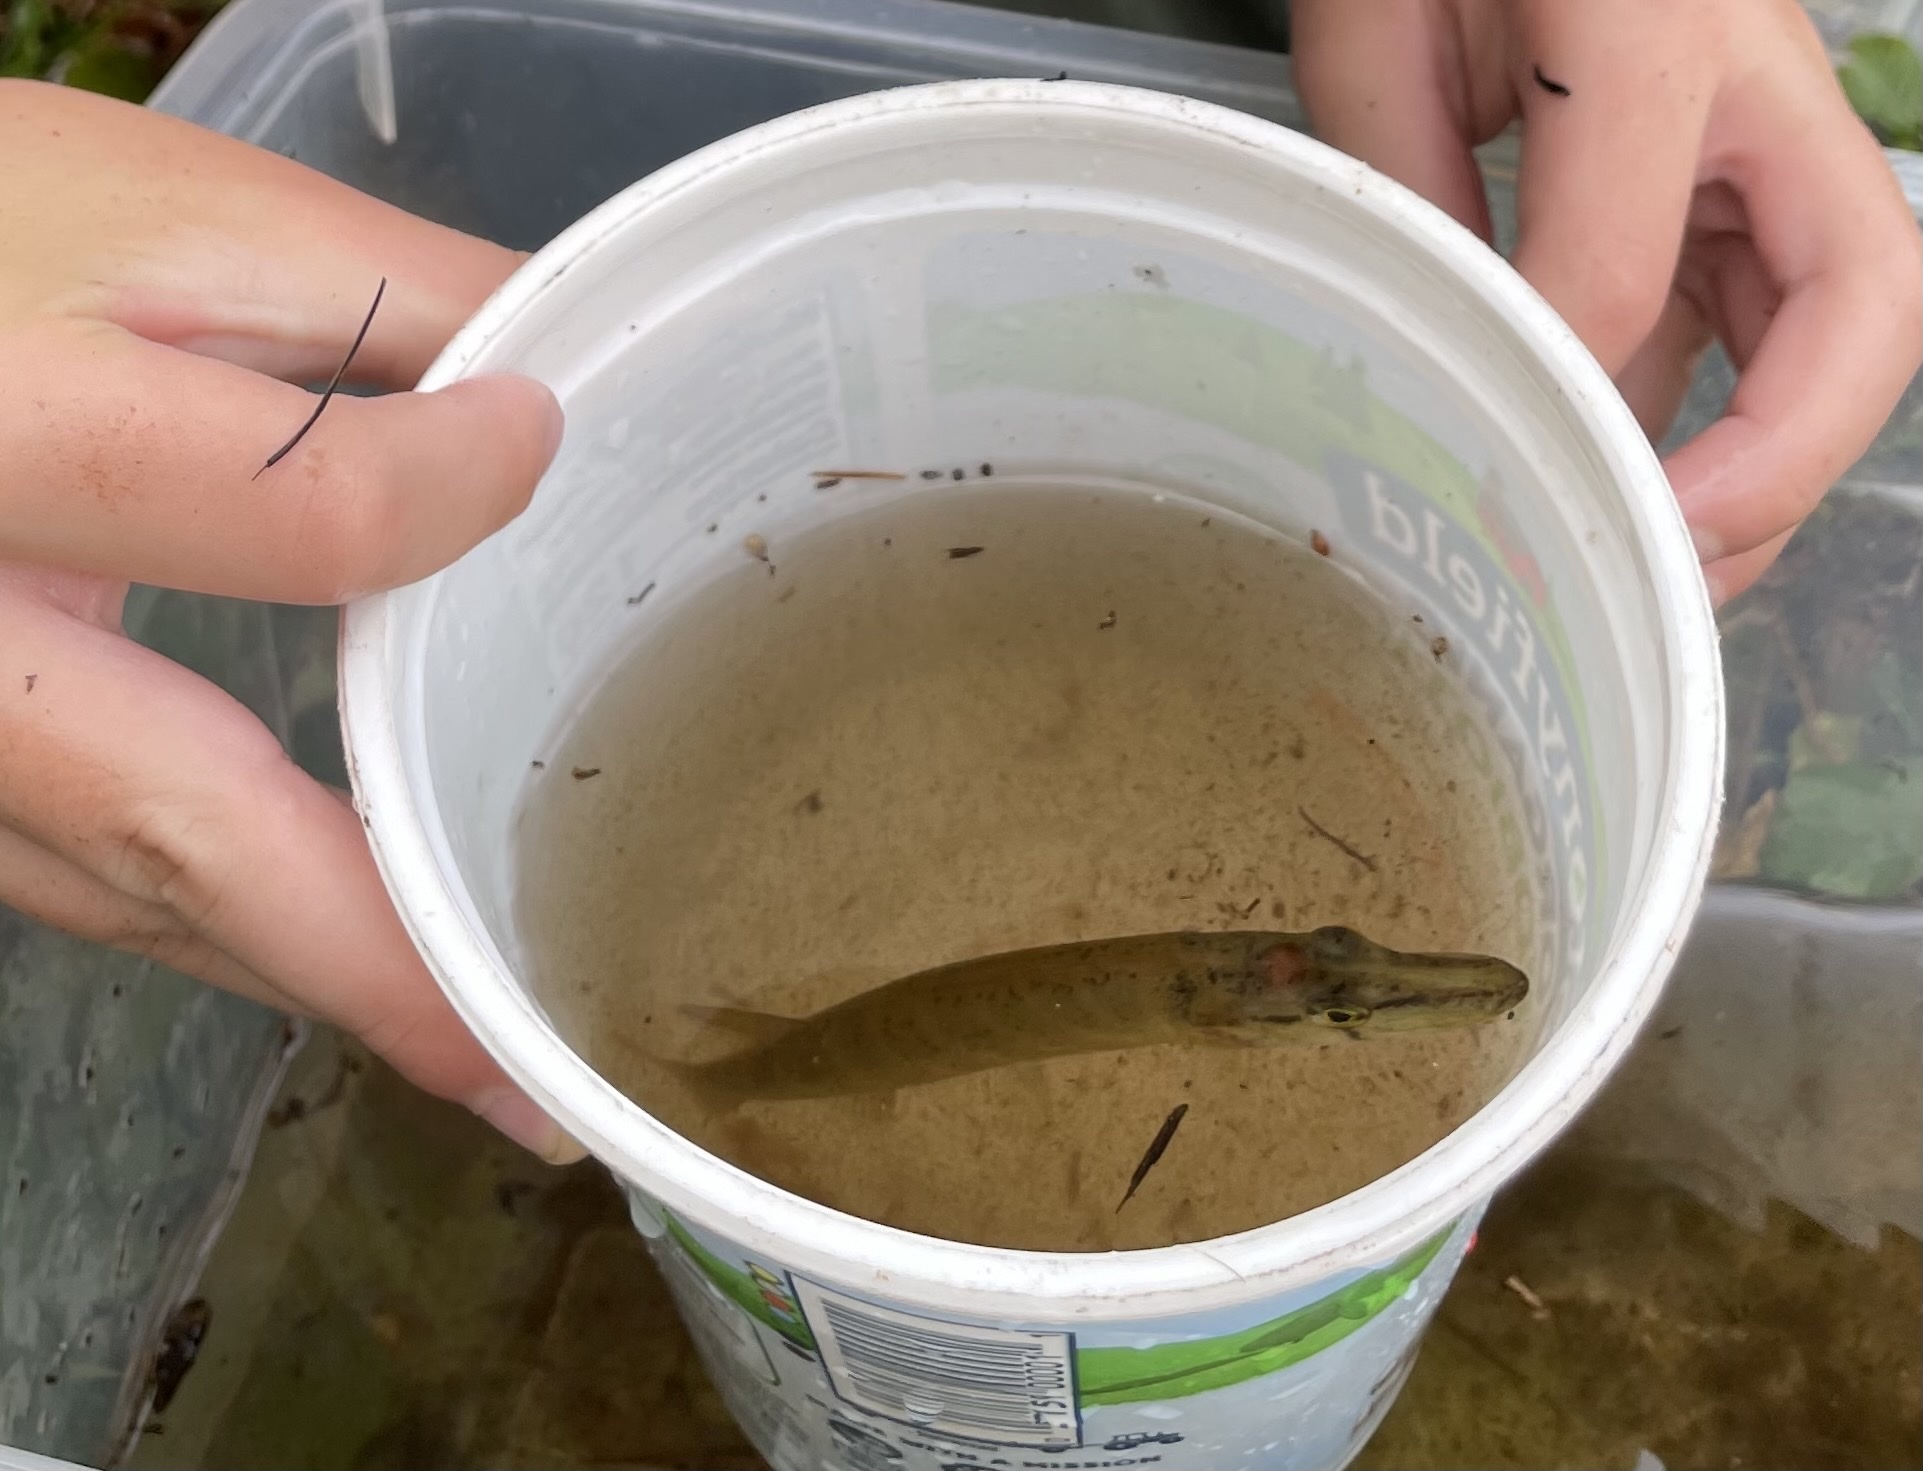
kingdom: Animalia
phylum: Chordata
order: Esociformes
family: Esocidae
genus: Esox
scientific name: Esox niger
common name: Chain pickerel
